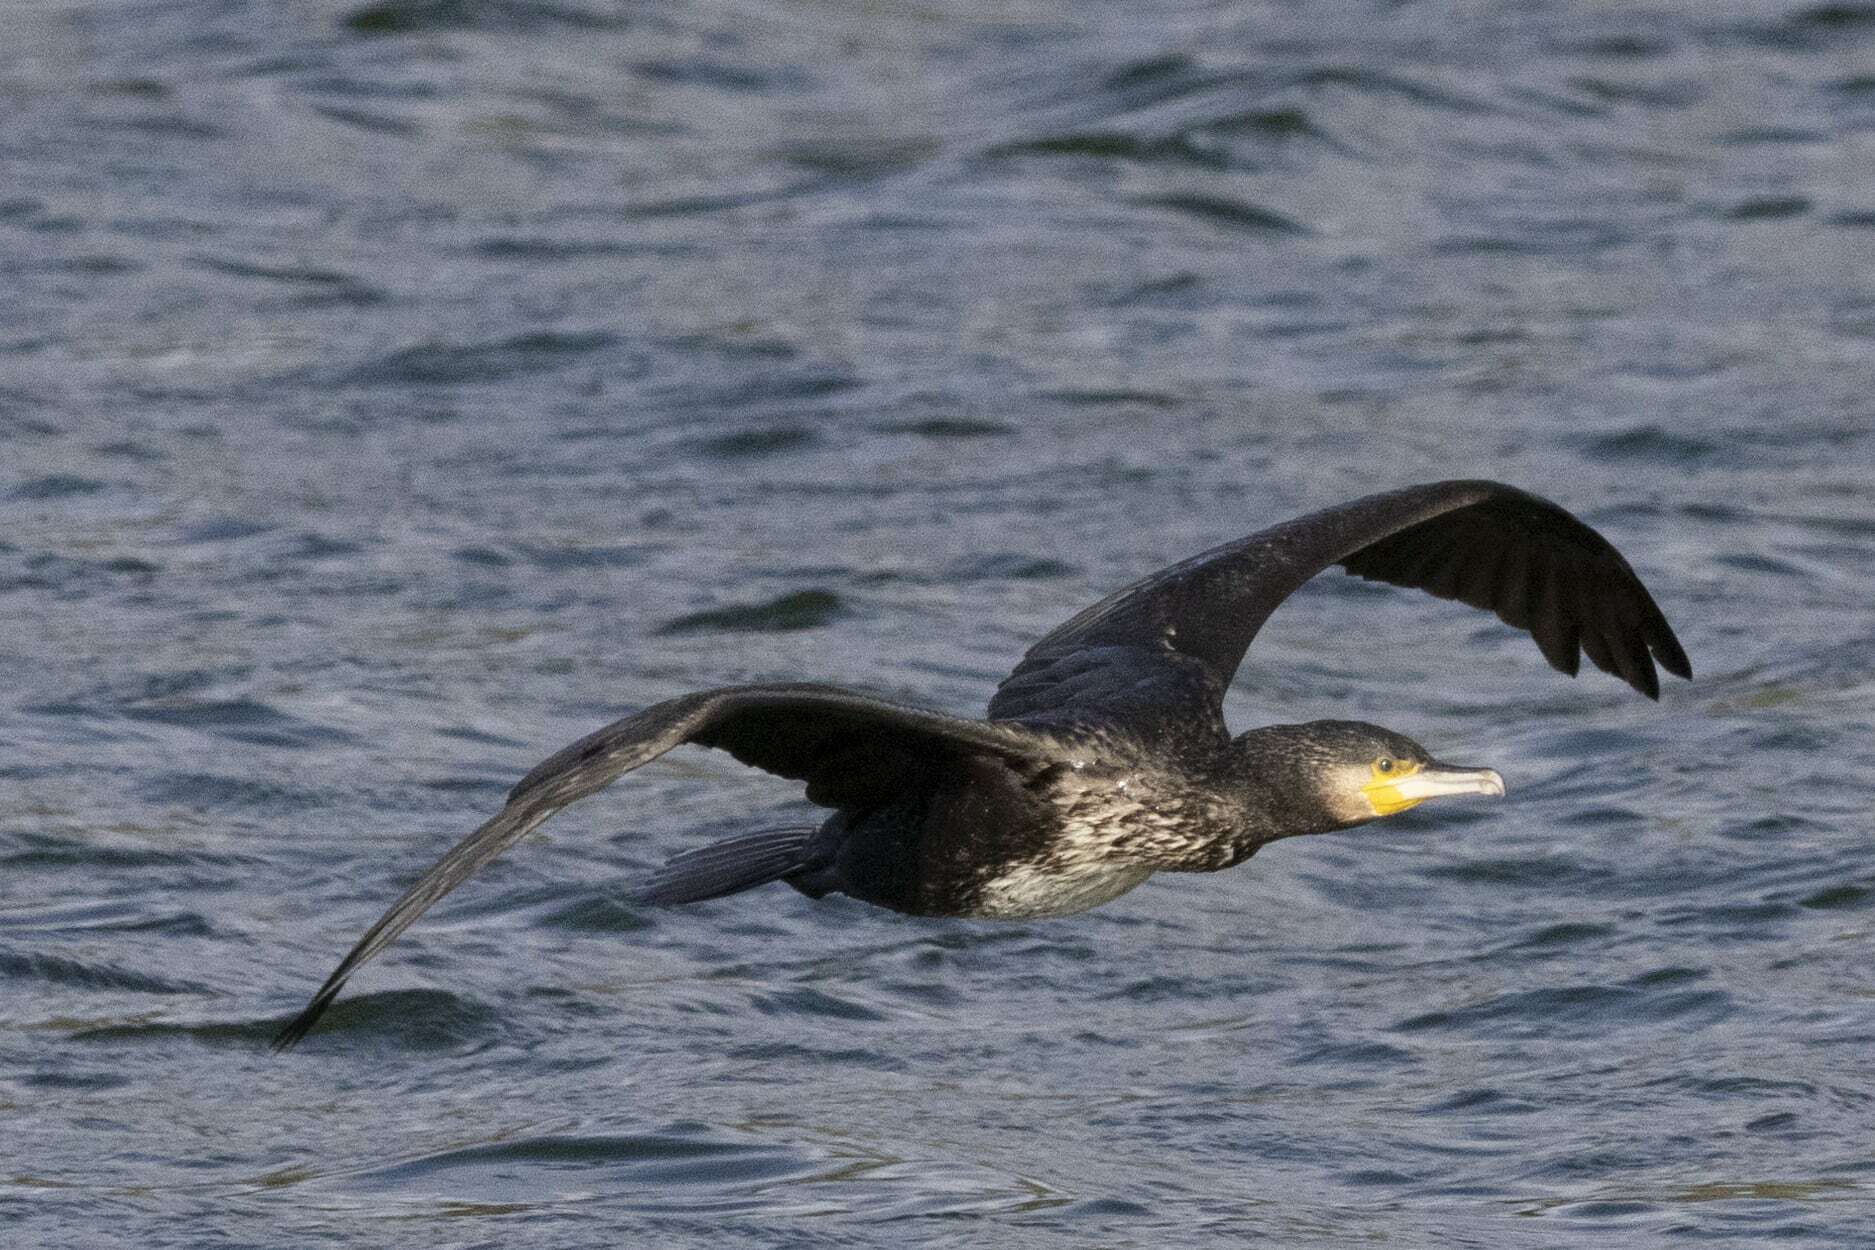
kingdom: Animalia
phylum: Chordata
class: Aves
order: Suliformes
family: Phalacrocoracidae
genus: Phalacrocorax
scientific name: Phalacrocorax carbo
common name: Great cormorant
